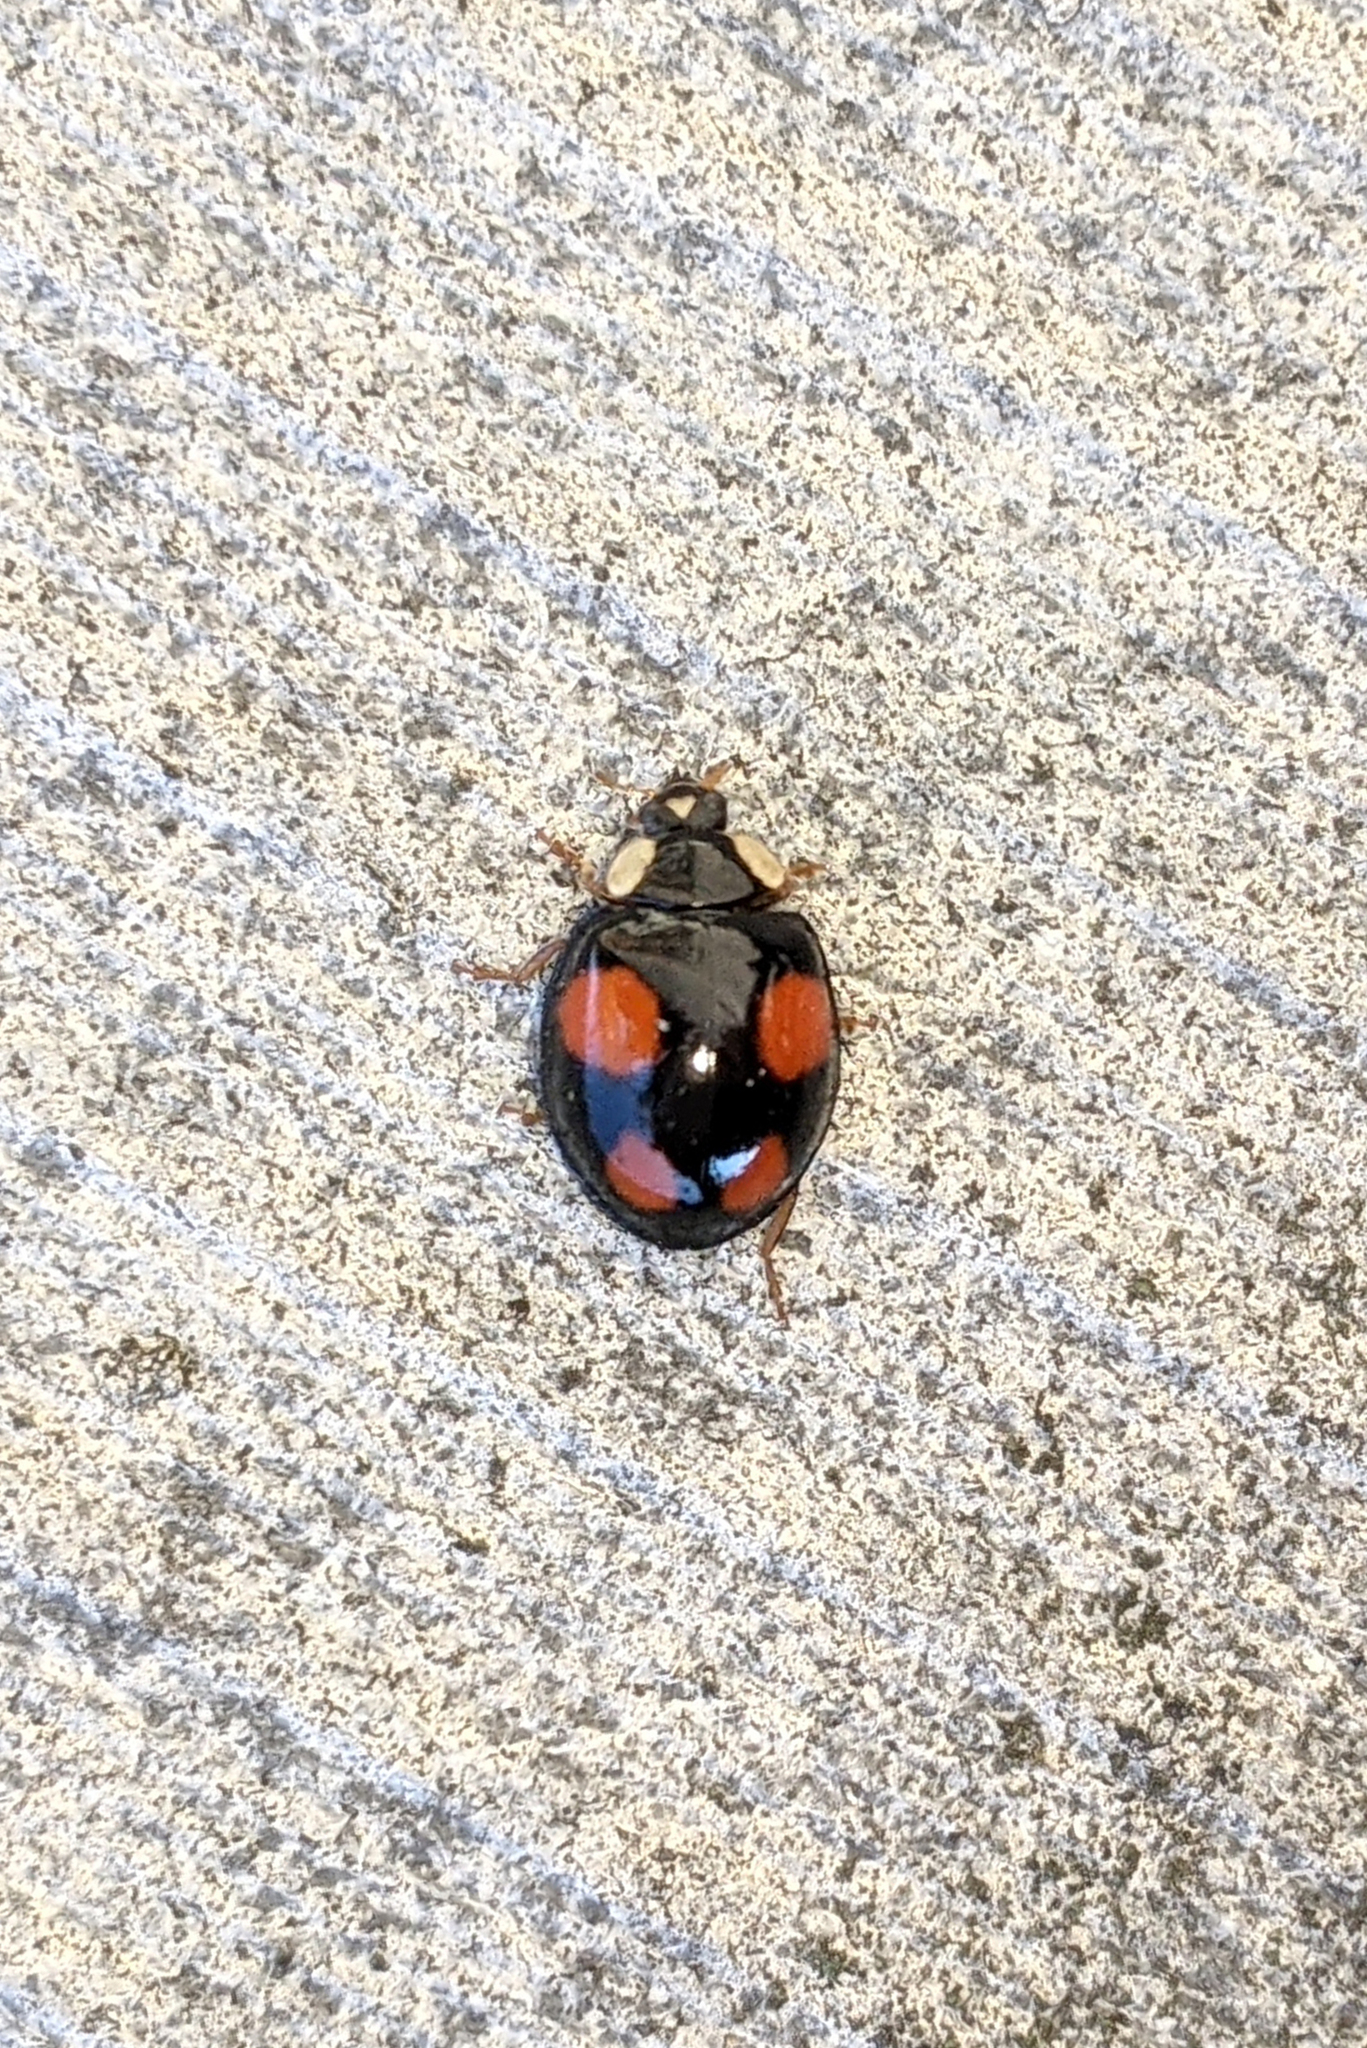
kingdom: Animalia
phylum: Arthropoda
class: Insecta
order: Coleoptera
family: Coccinellidae
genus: Harmonia
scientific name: Harmonia axyridis
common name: Harlequin ladybird
